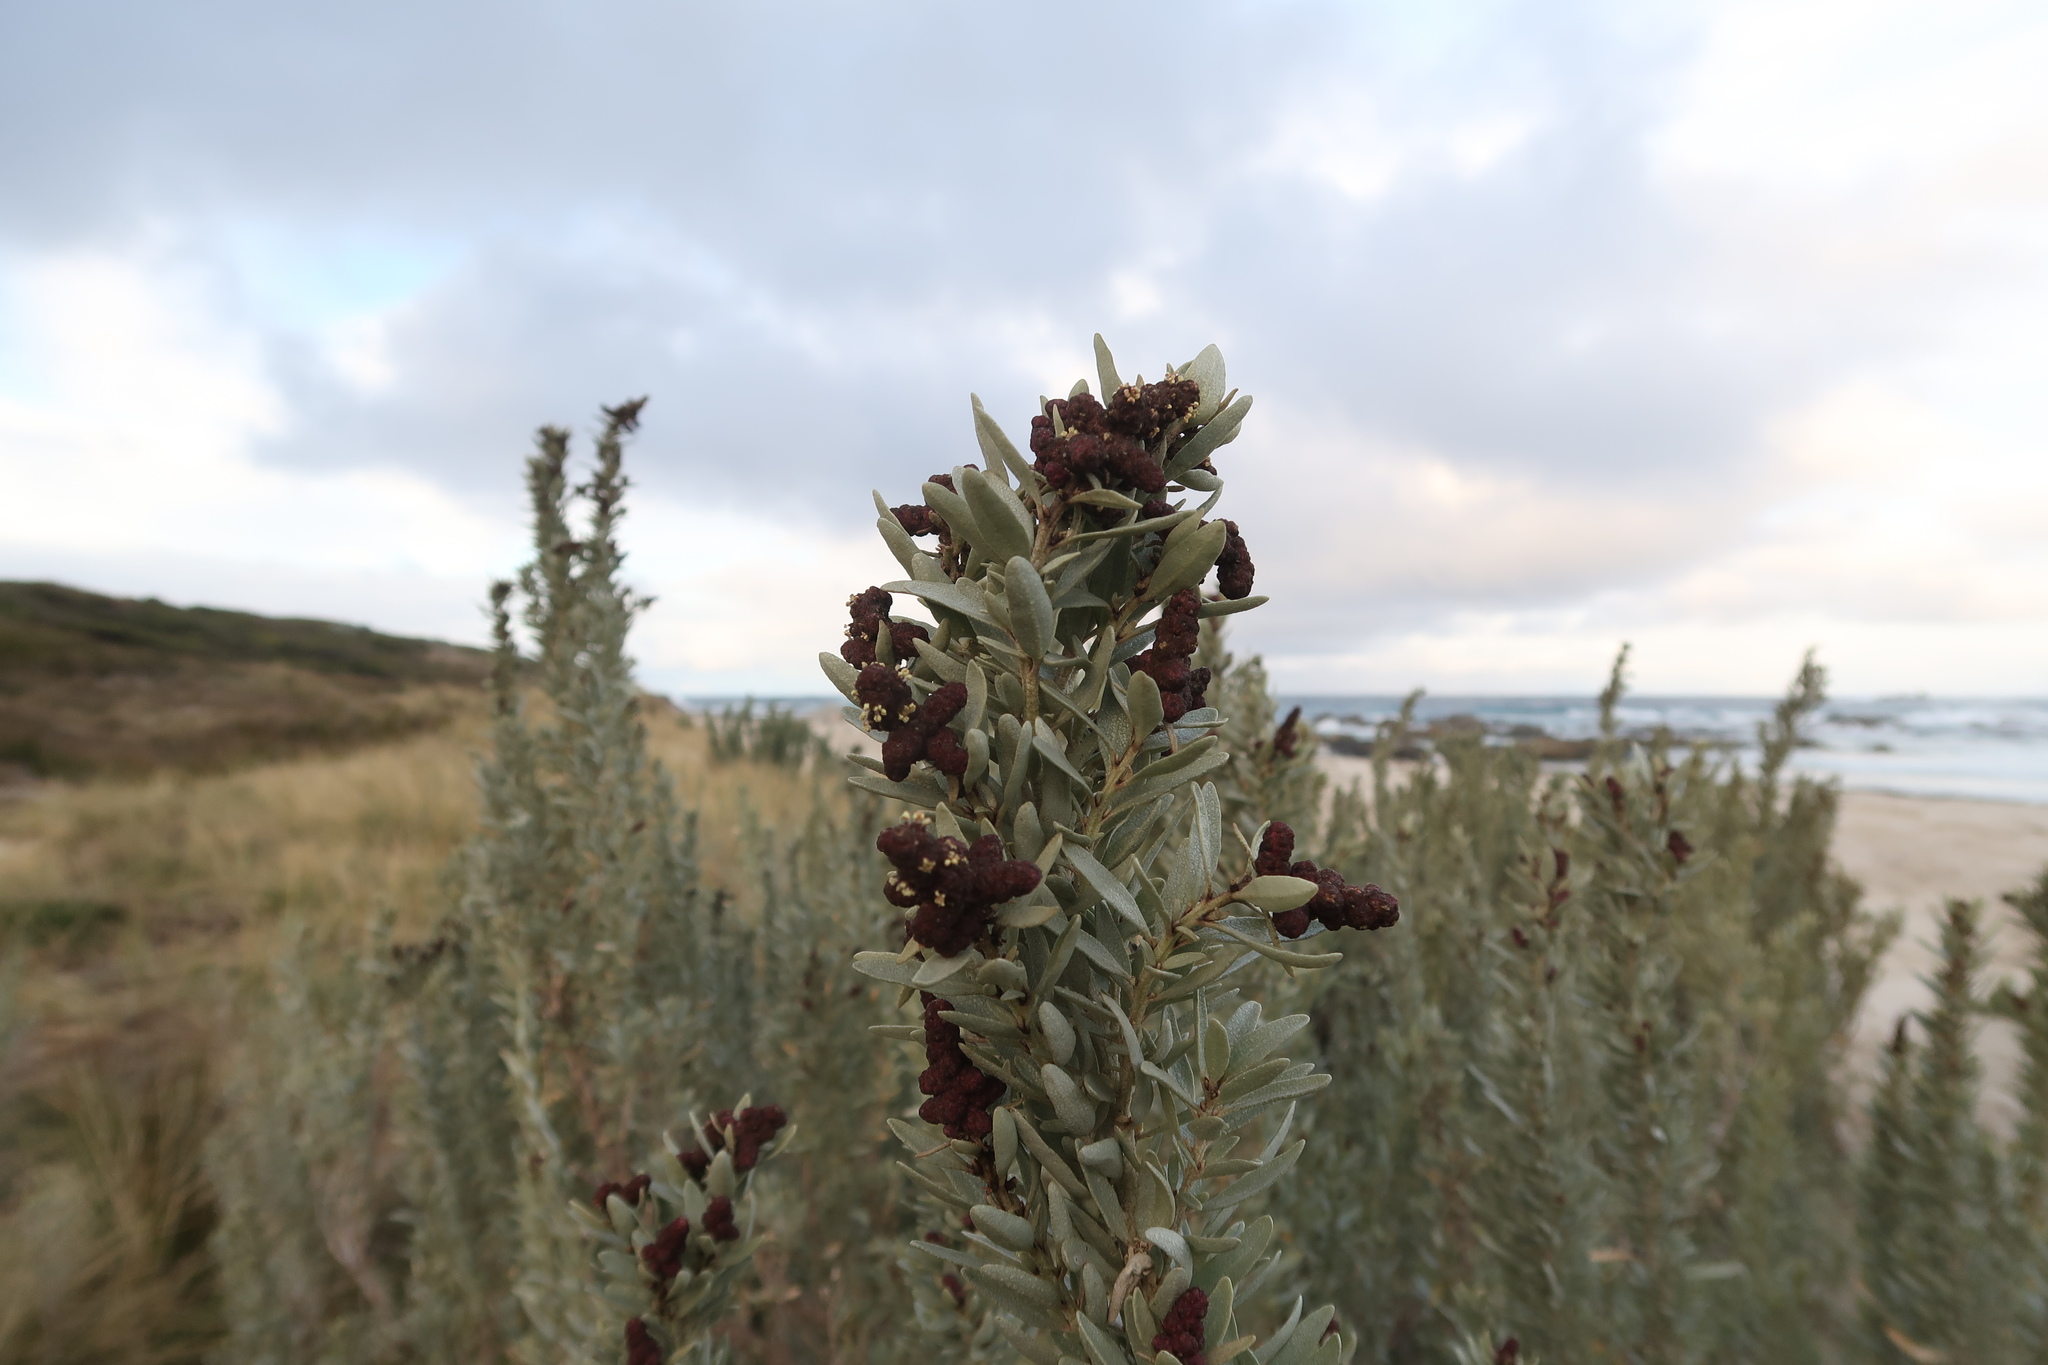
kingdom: Plantae
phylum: Tracheophyta
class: Magnoliopsida
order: Caryophyllales
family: Amaranthaceae
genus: Atriplex
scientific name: Atriplex cinerea
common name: Grey saltbush
